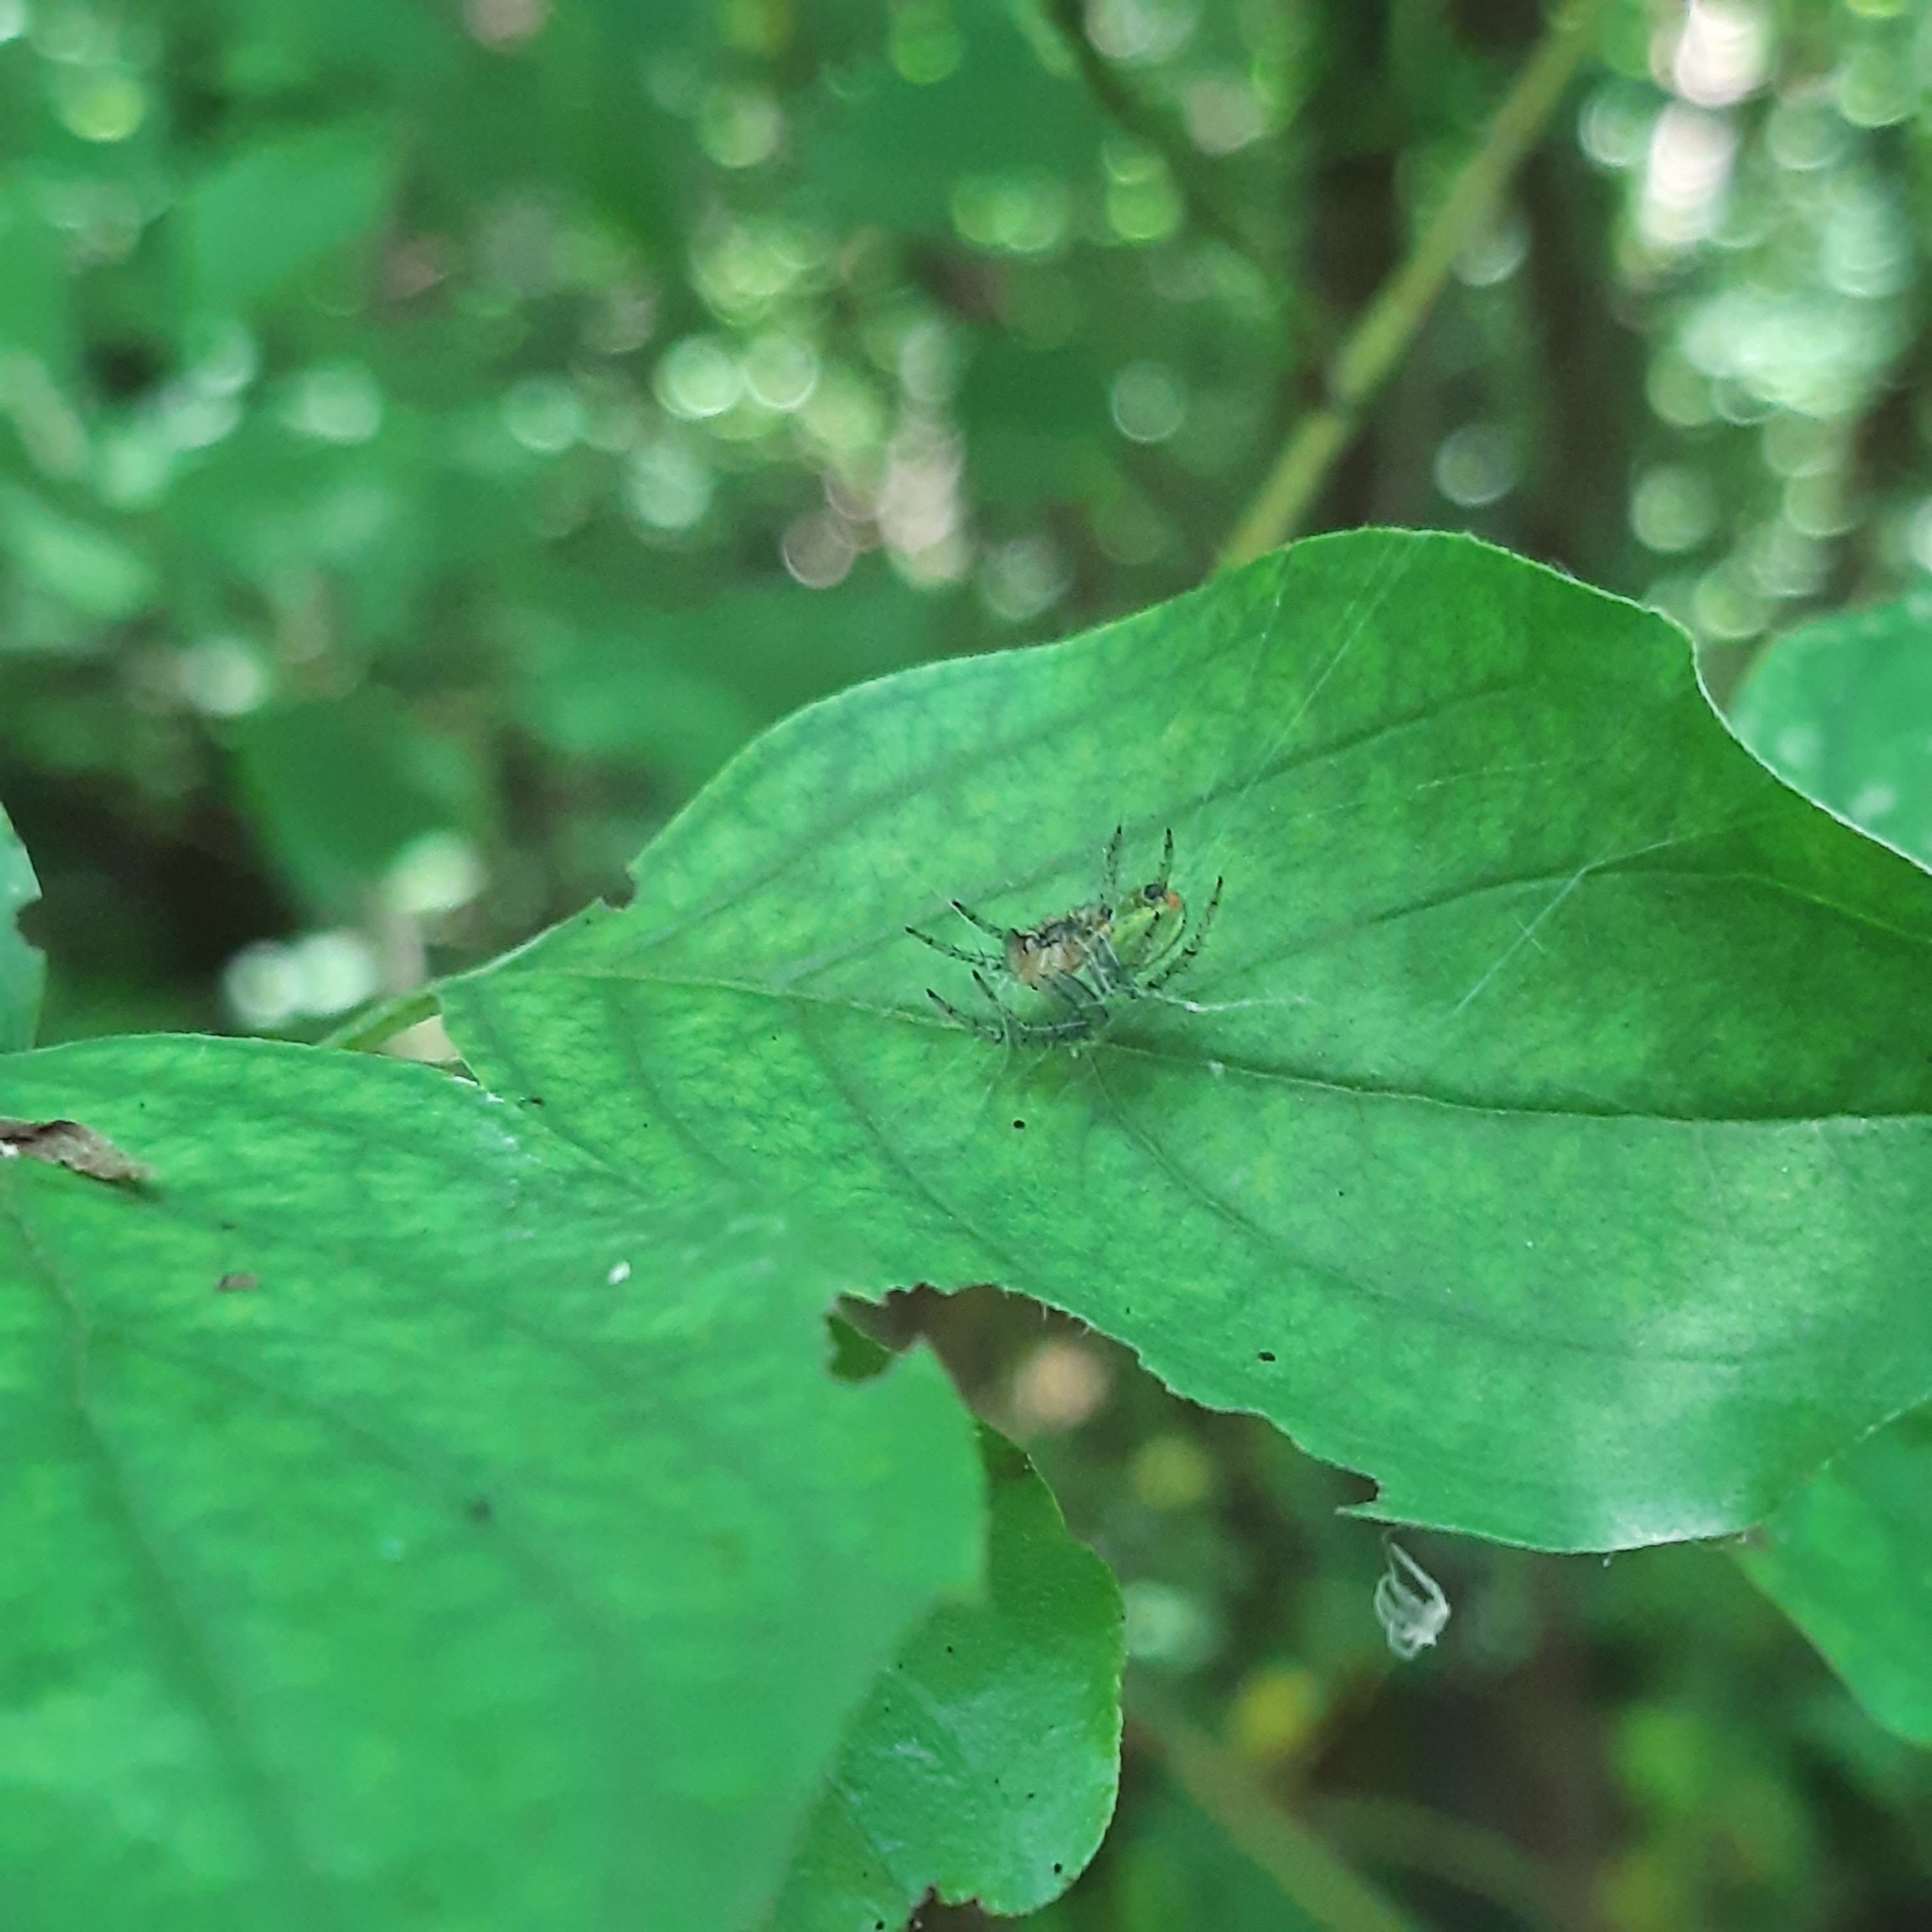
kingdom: Animalia
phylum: Arthropoda
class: Arachnida
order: Araneae
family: Araneidae
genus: Araniella
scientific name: Araniella
